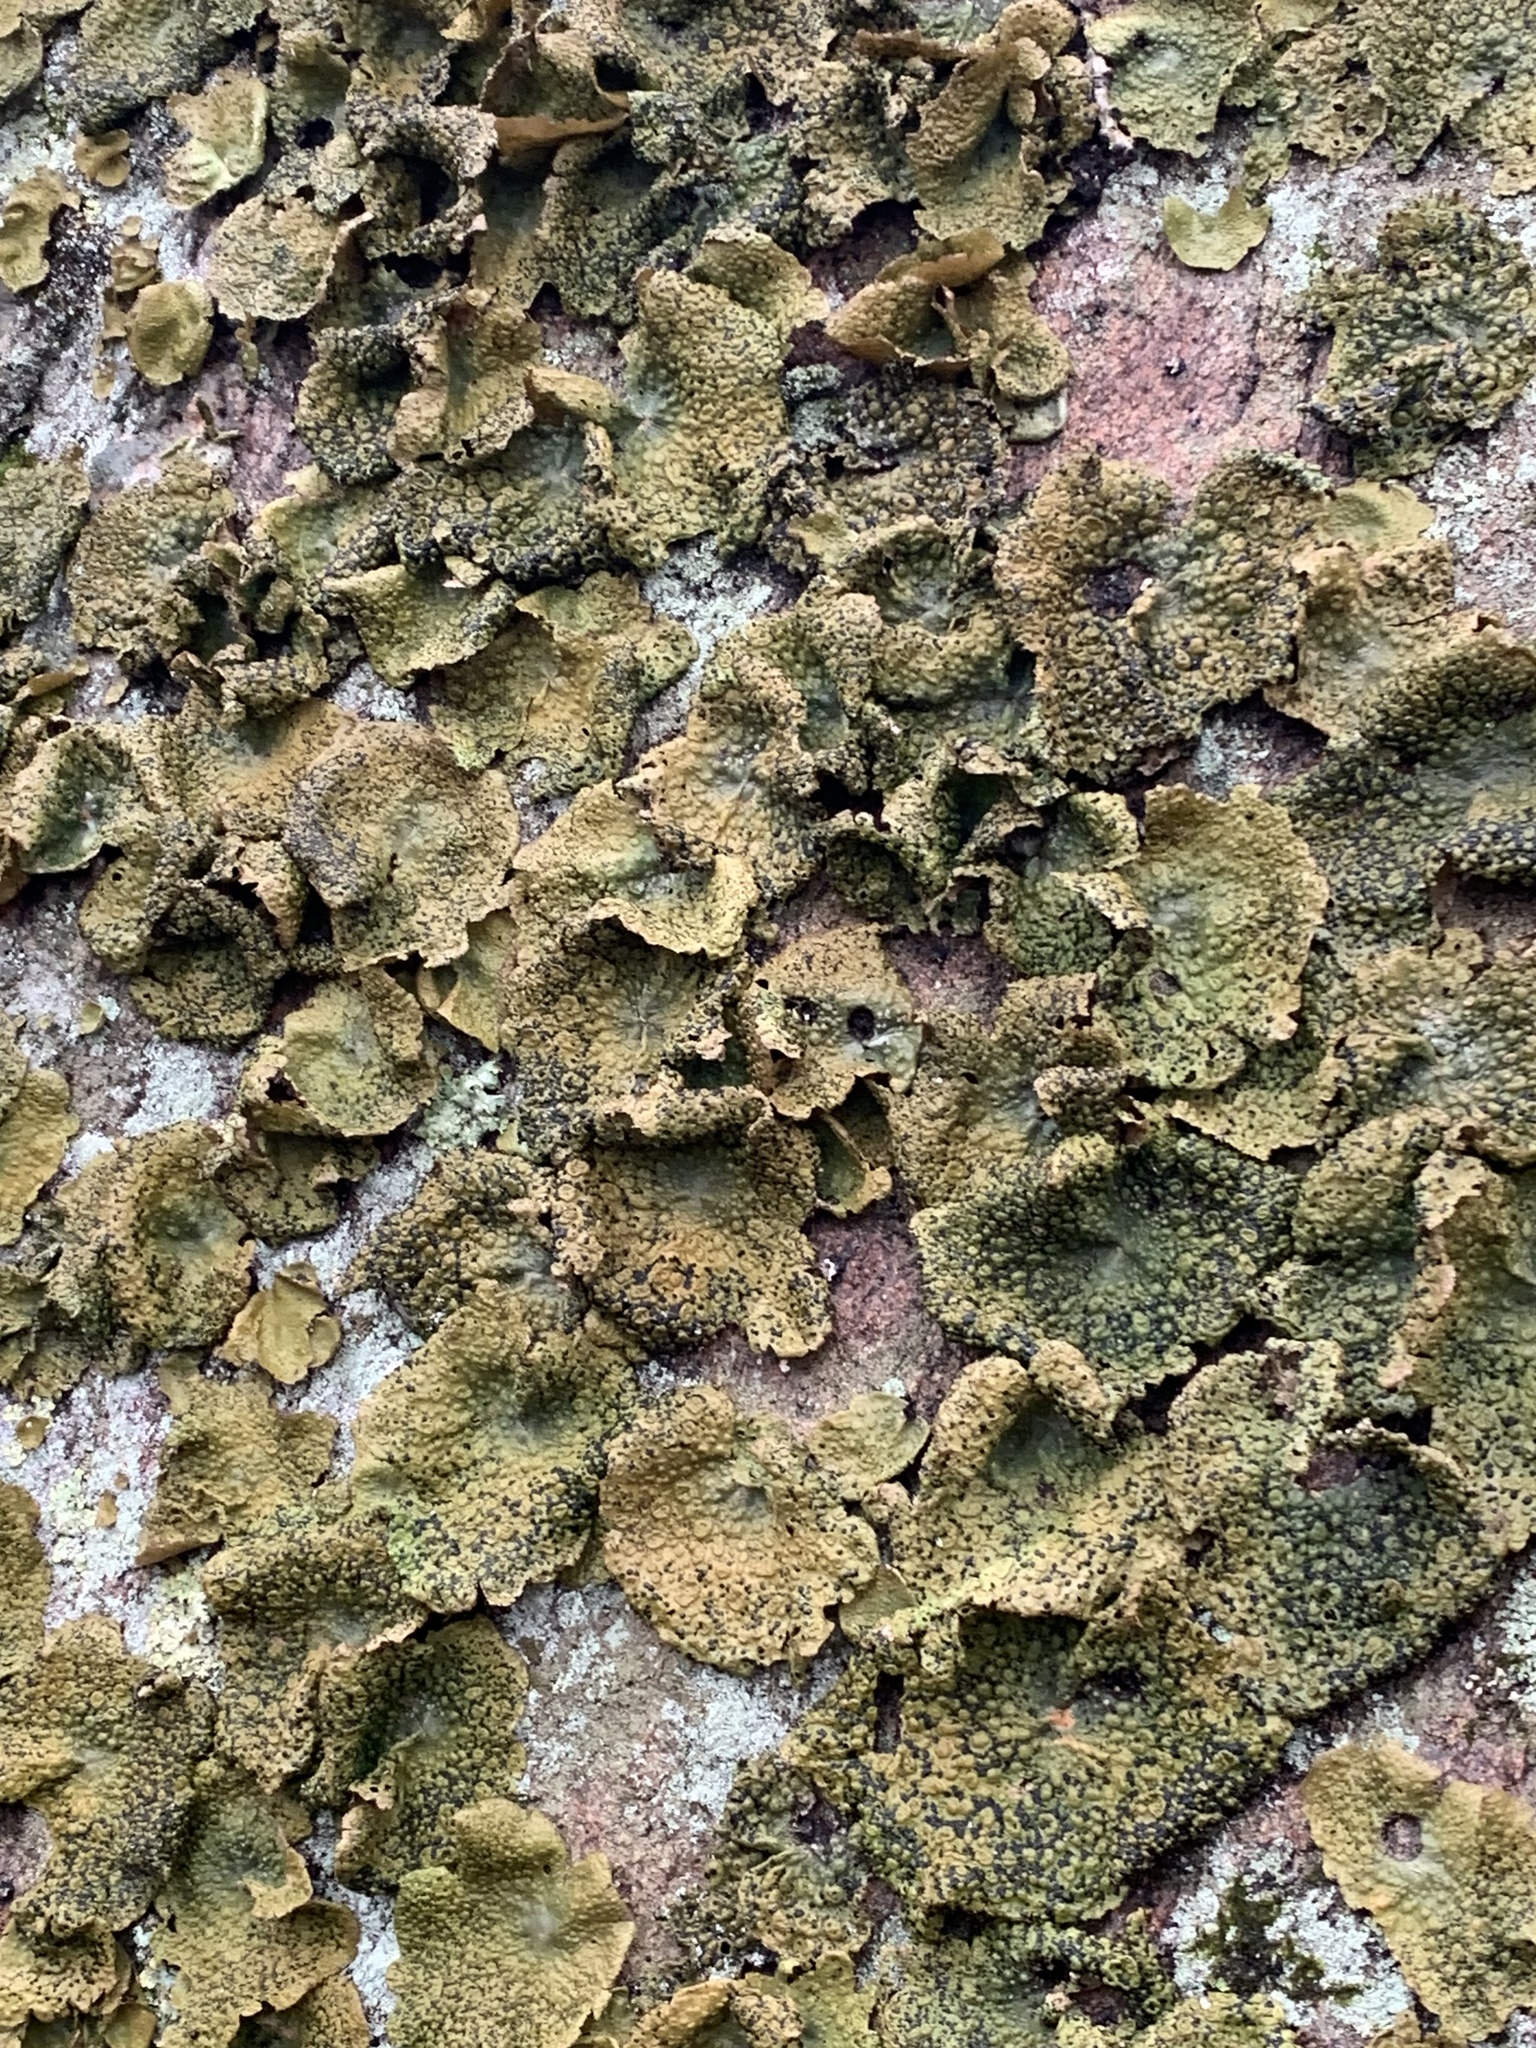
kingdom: Fungi
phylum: Ascomycota
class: Lecanoromycetes
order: Umbilicariales
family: Umbilicariaceae
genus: Lasallia
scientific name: Lasallia papulosa
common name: Common toadskin lichen
